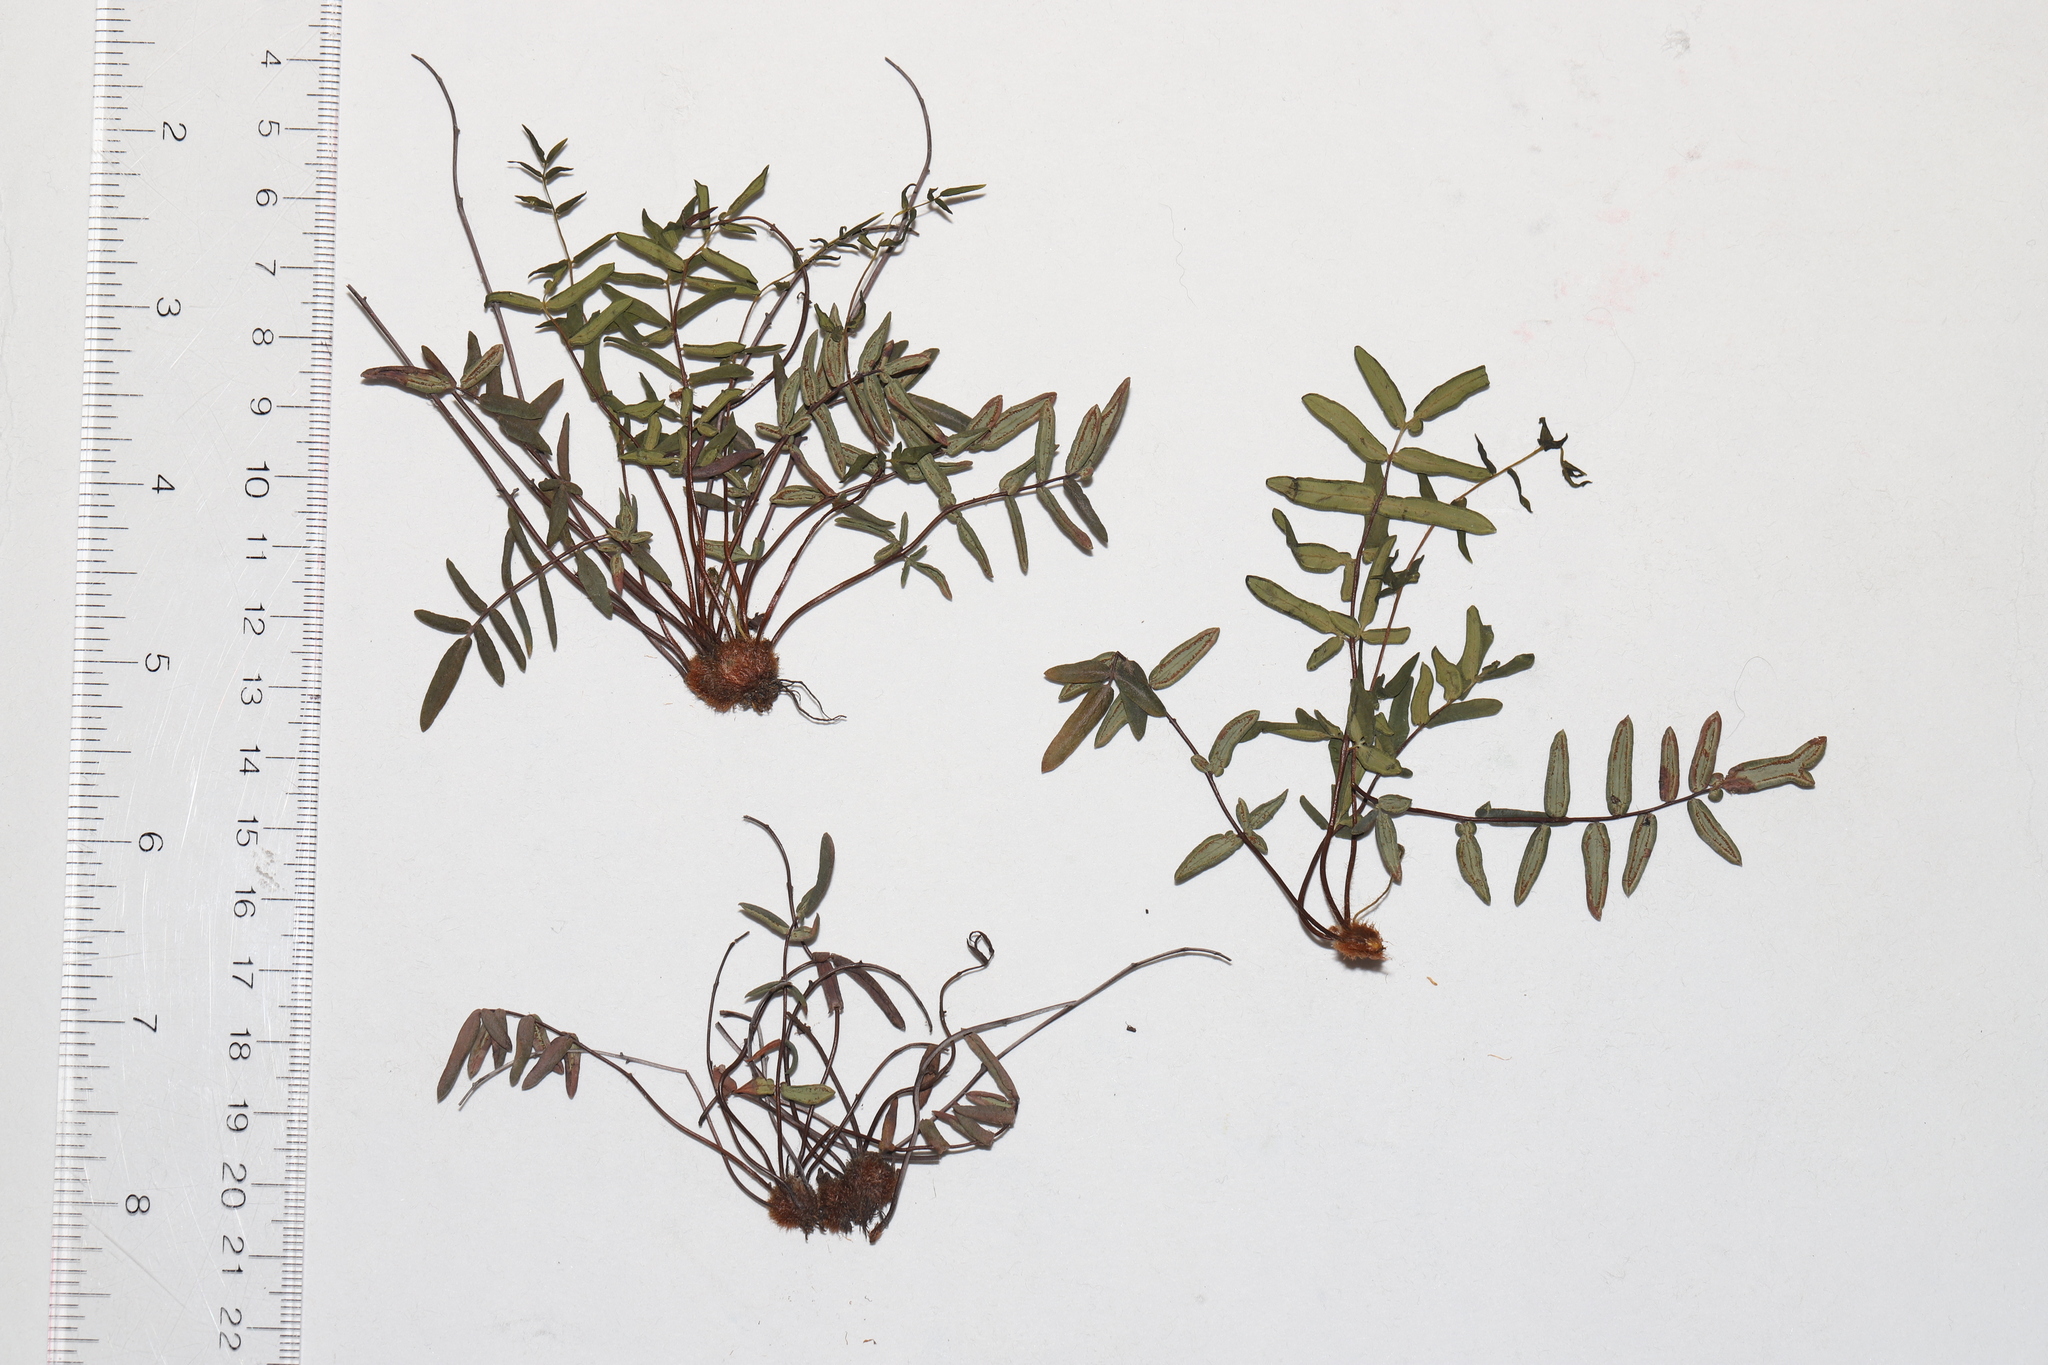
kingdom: Plantae
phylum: Tracheophyta
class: Polypodiopsida
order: Polypodiales
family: Pteridaceae
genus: Pellaea
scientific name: Pellaea glabella
